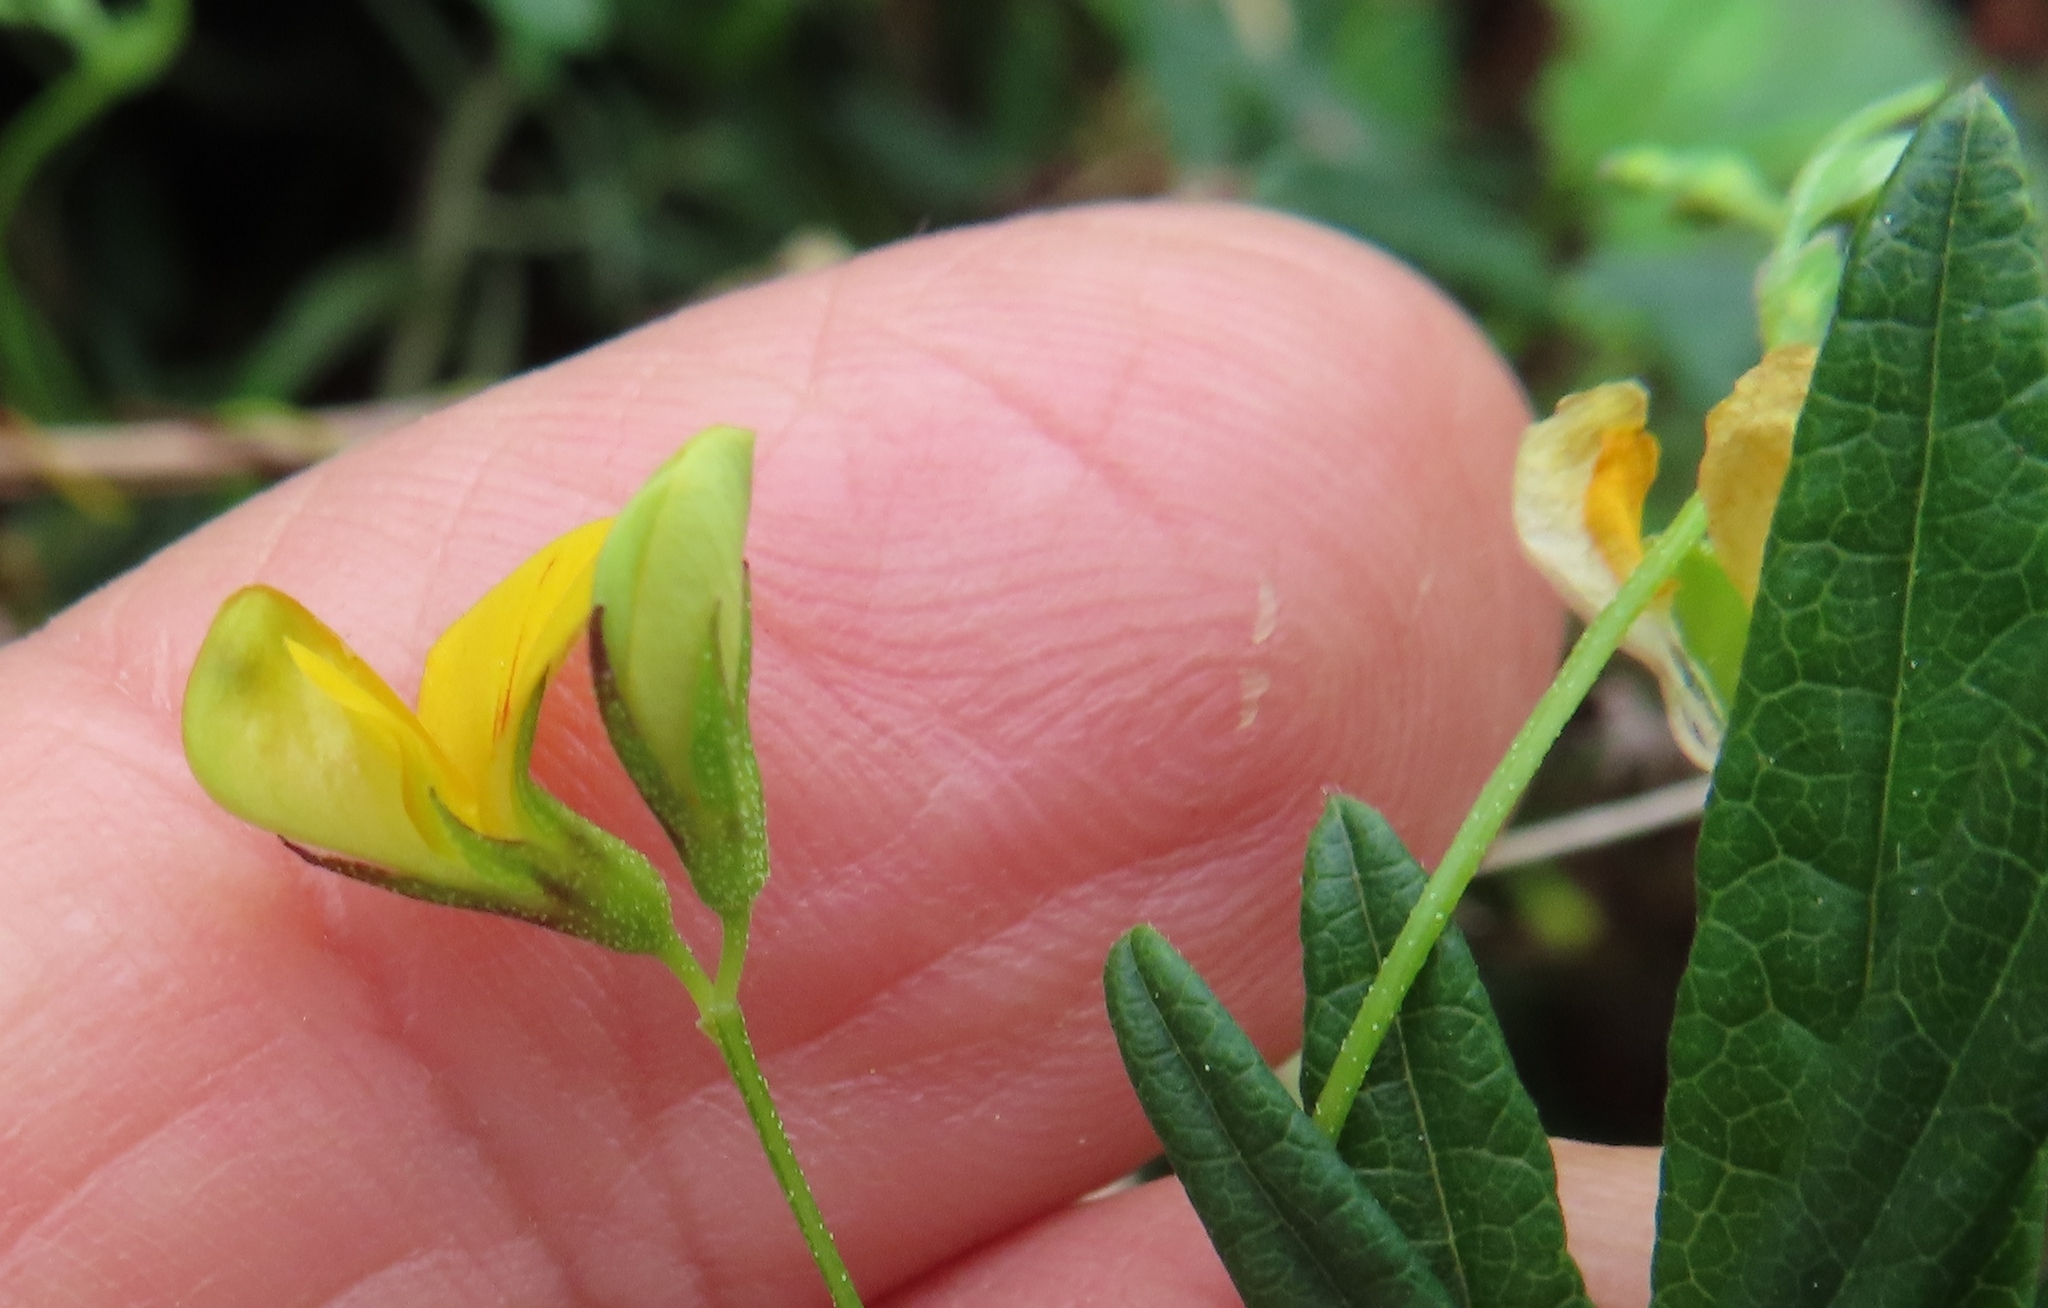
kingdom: Plantae
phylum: Tracheophyta
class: Magnoliopsida
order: Fabales
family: Fabaceae
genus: Rhynchosia
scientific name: Rhynchosia capensis
